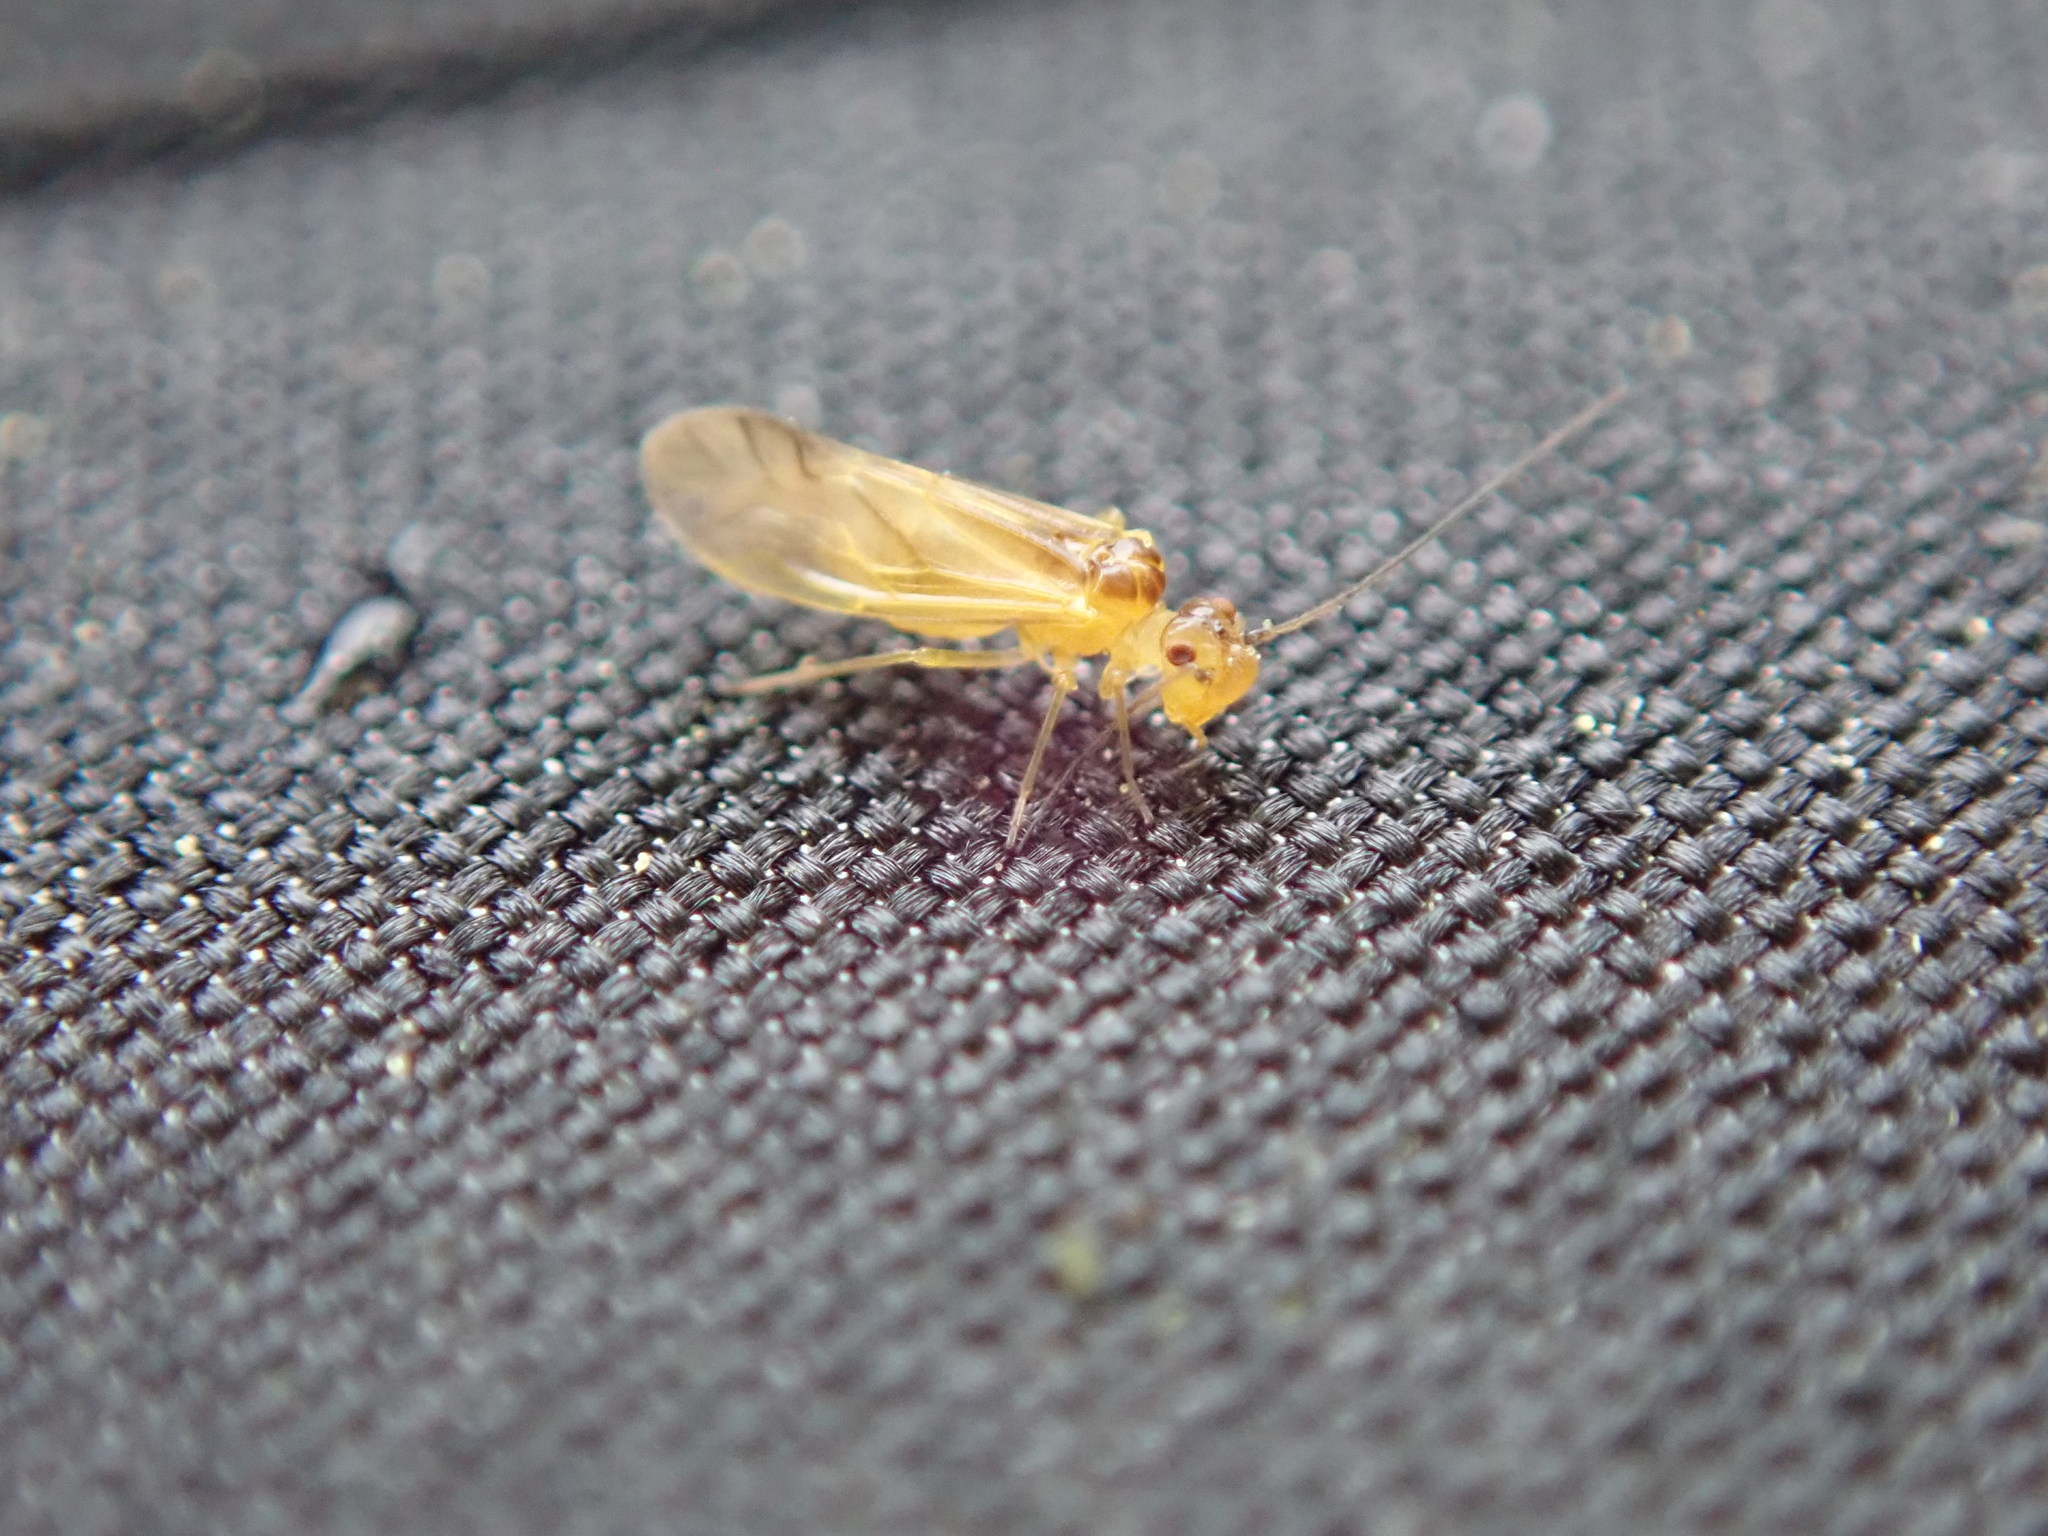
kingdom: Animalia
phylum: Arthropoda
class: Insecta
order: Psocodea
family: Caeciliusidae
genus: Valenzuela
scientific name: Valenzuela flavidus
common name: Yellow barklouse
